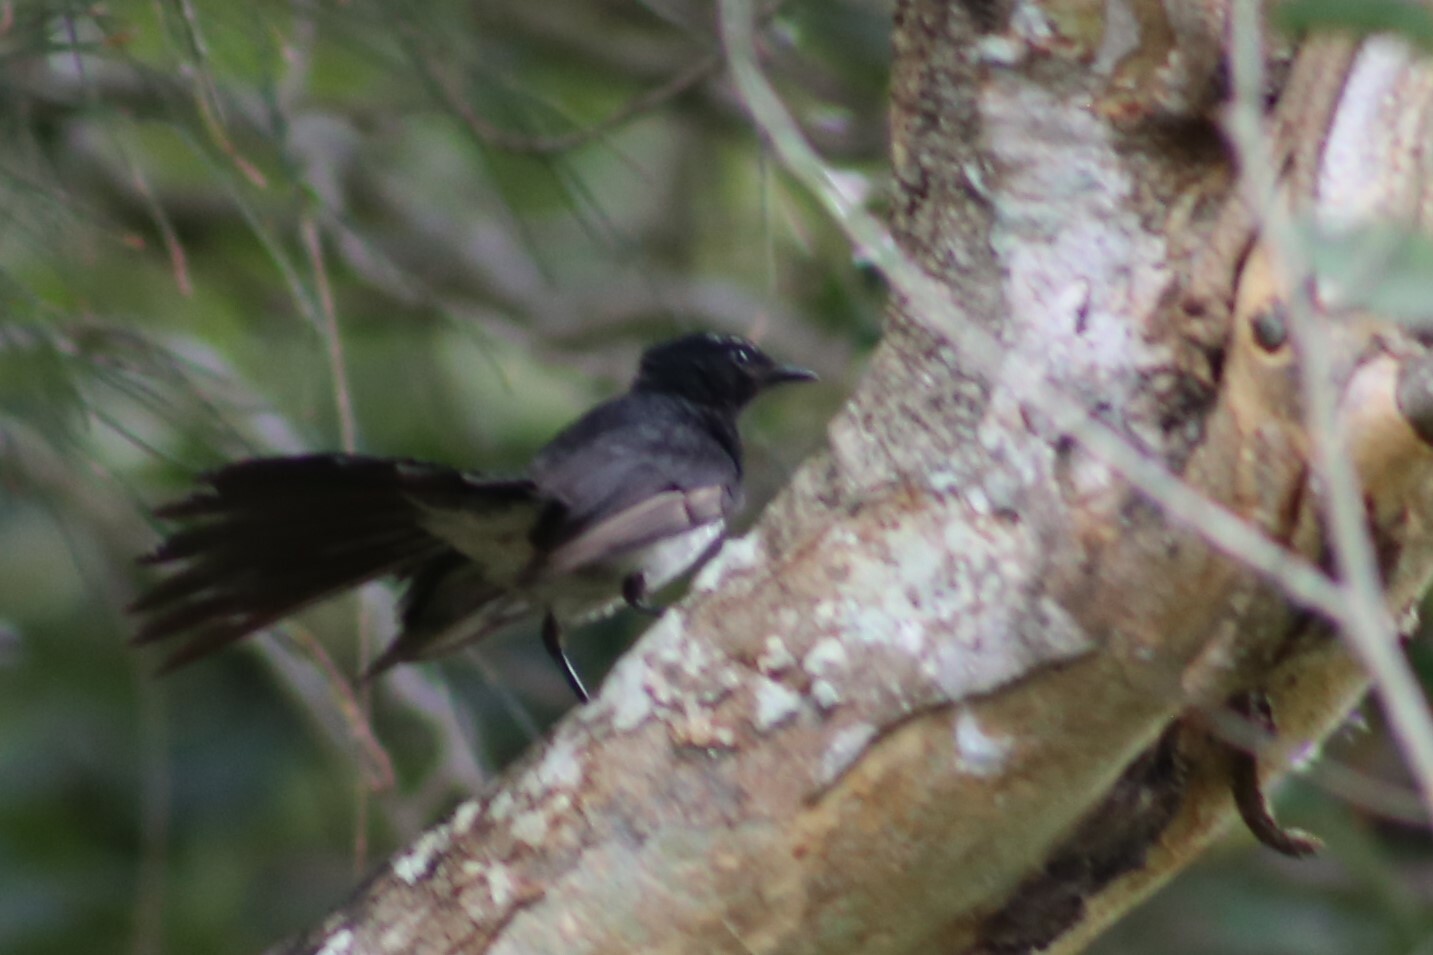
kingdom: Animalia
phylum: Chordata
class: Aves
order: Passeriformes
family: Rhipiduridae
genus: Rhipidura
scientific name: Rhipidura leucophrys
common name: Willie wagtail
